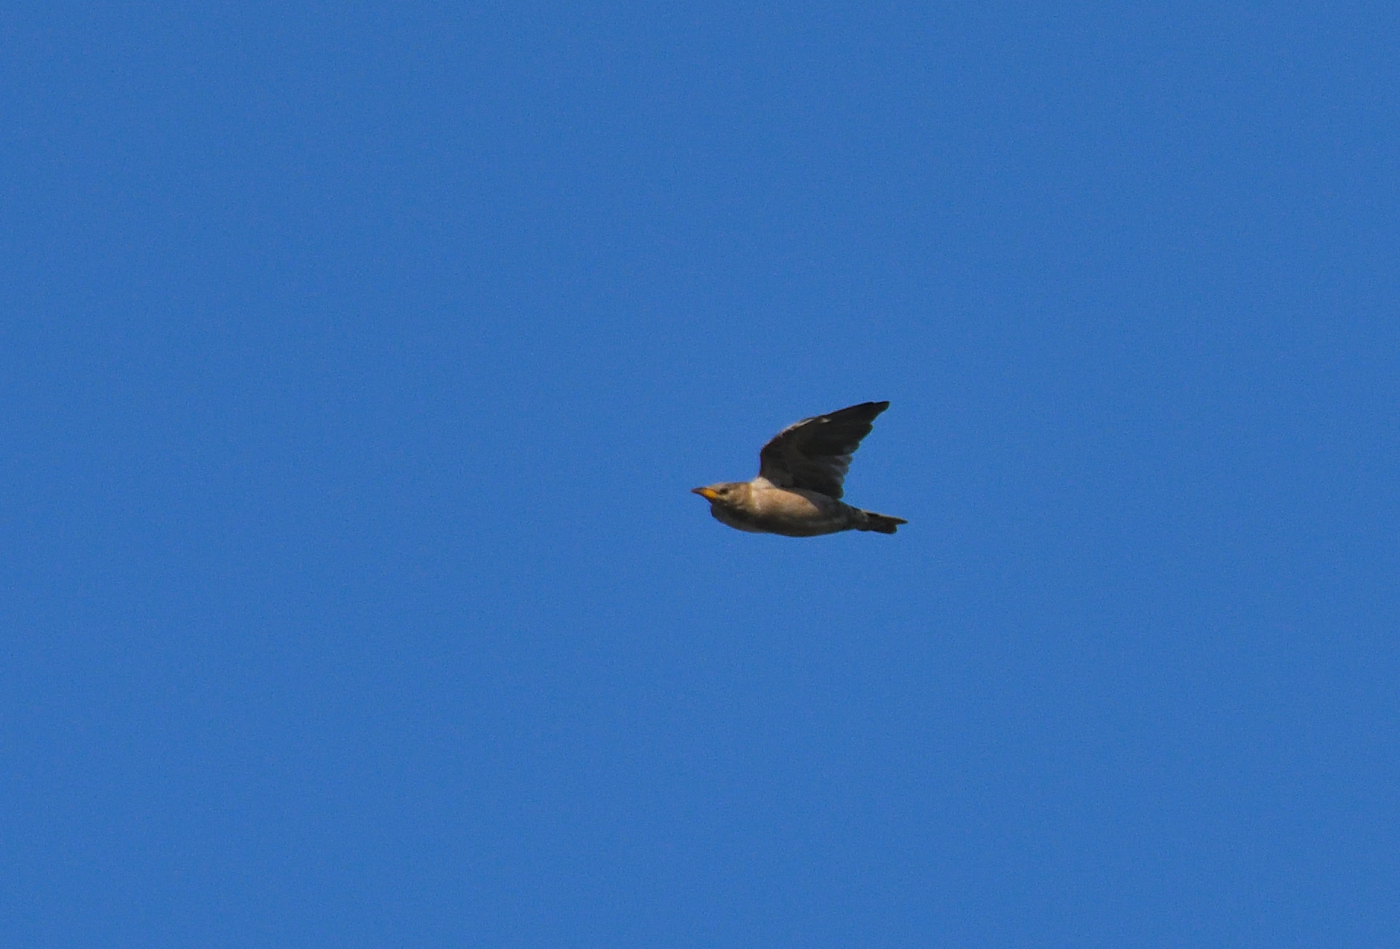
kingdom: Animalia
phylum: Chordata
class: Aves
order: Passeriformes
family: Sturnidae
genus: Pastor
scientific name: Pastor roseus
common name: Rosy starling
